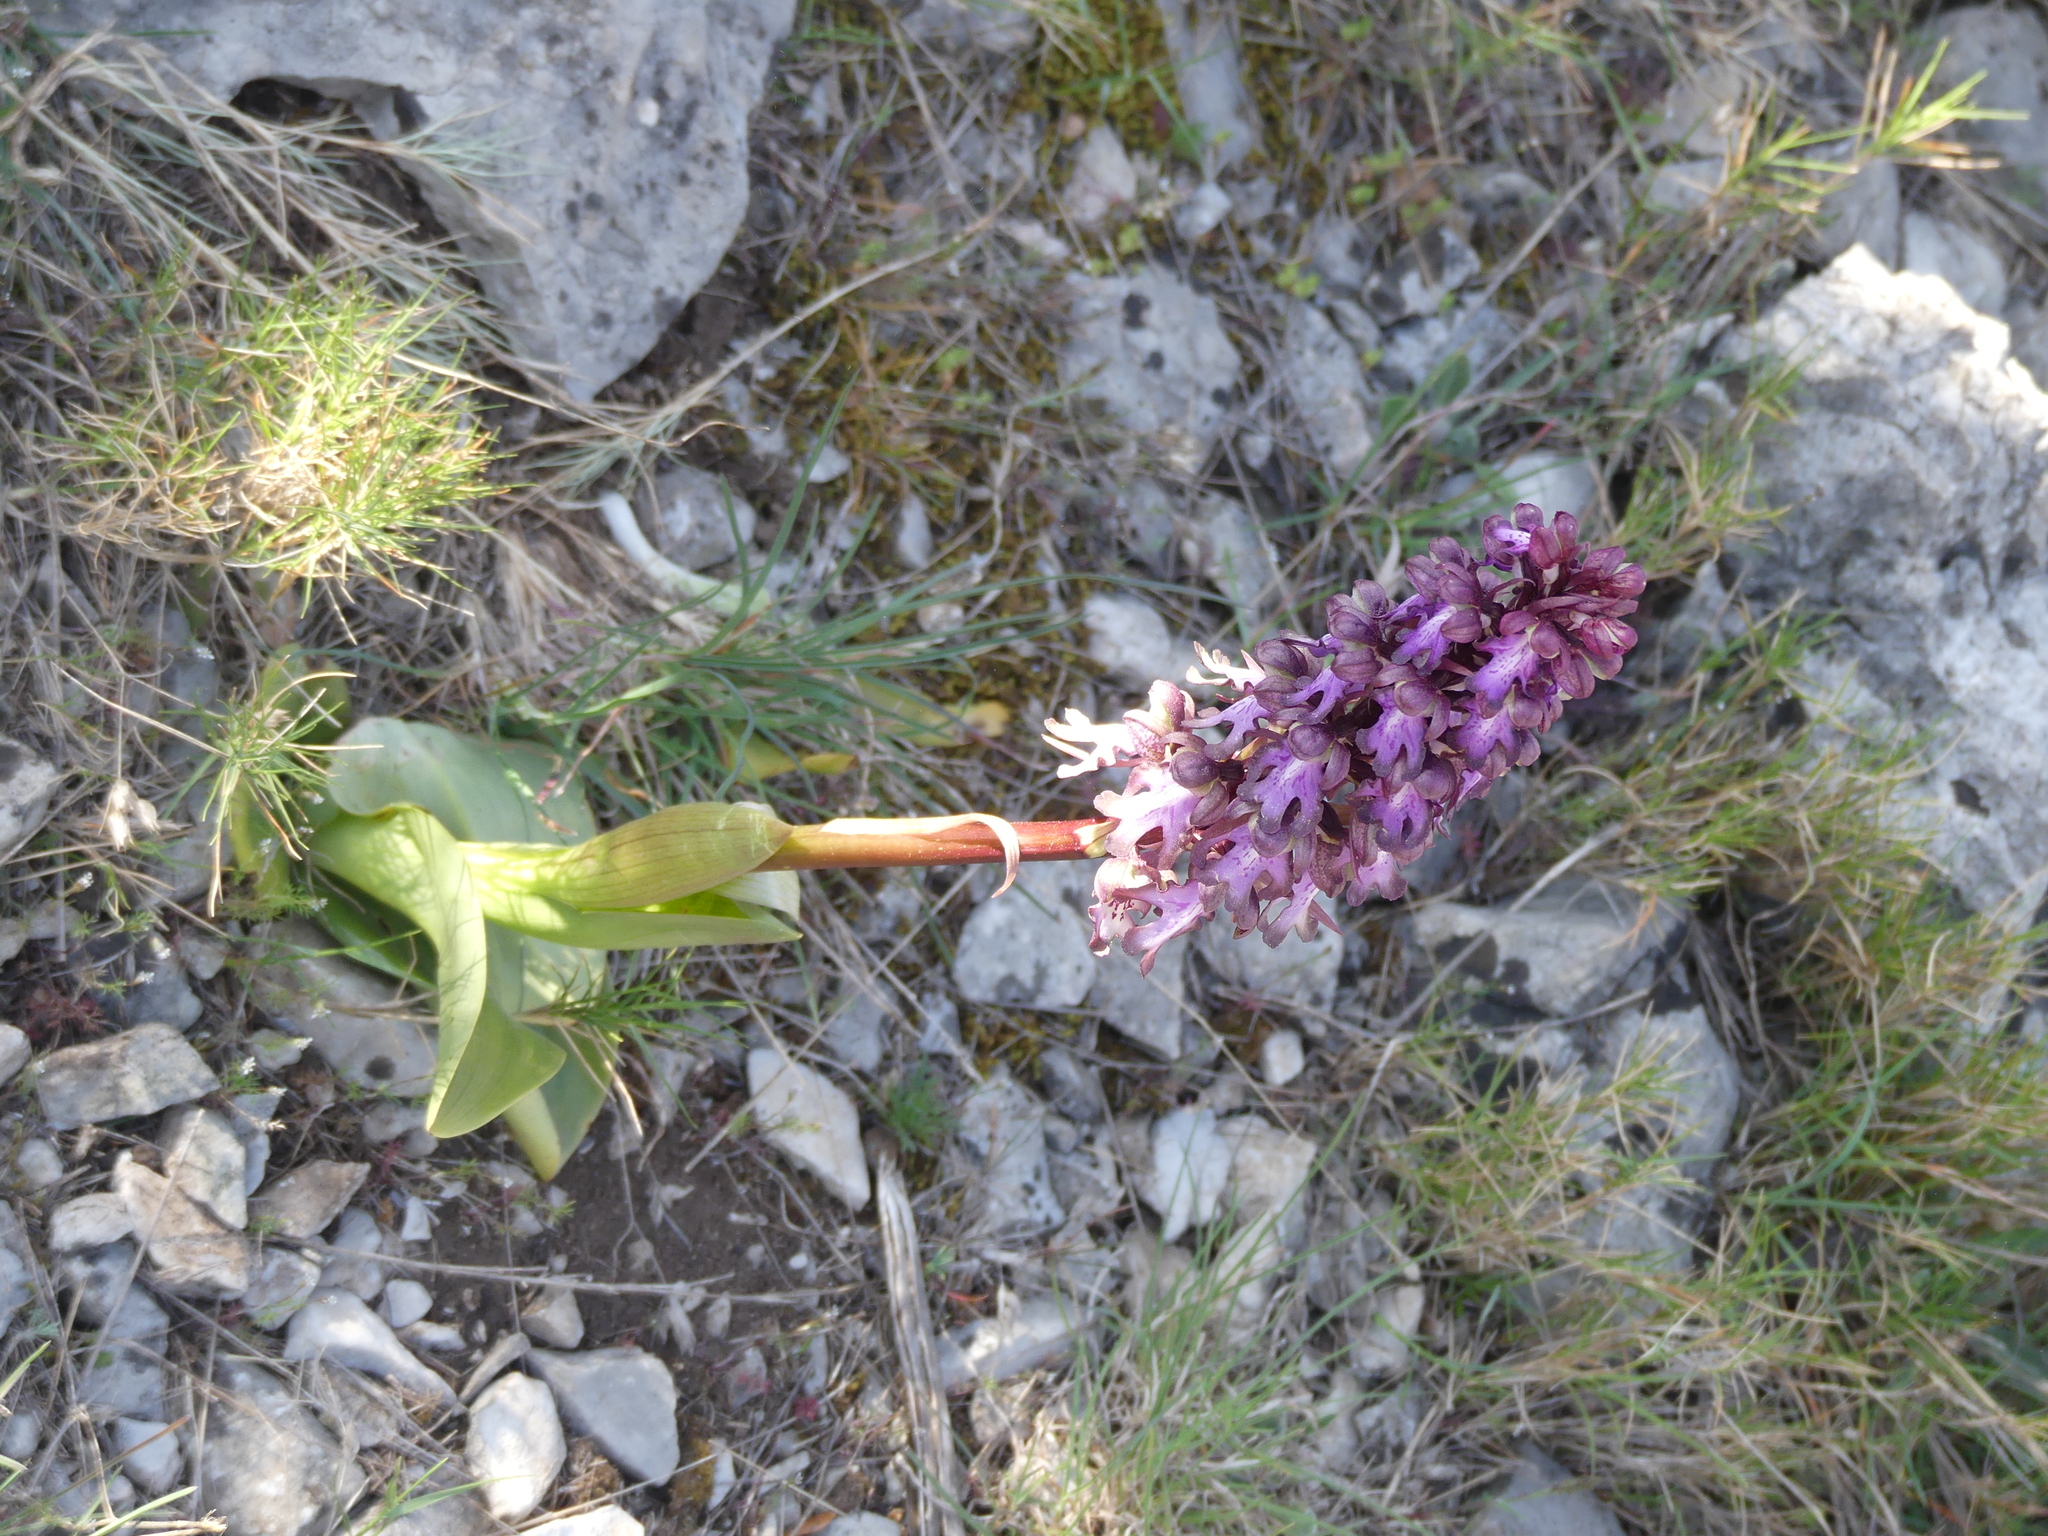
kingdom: Plantae
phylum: Tracheophyta
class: Liliopsida
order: Asparagales
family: Orchidaceae
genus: Himantoglossum
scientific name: Himantoglossum robertianum
